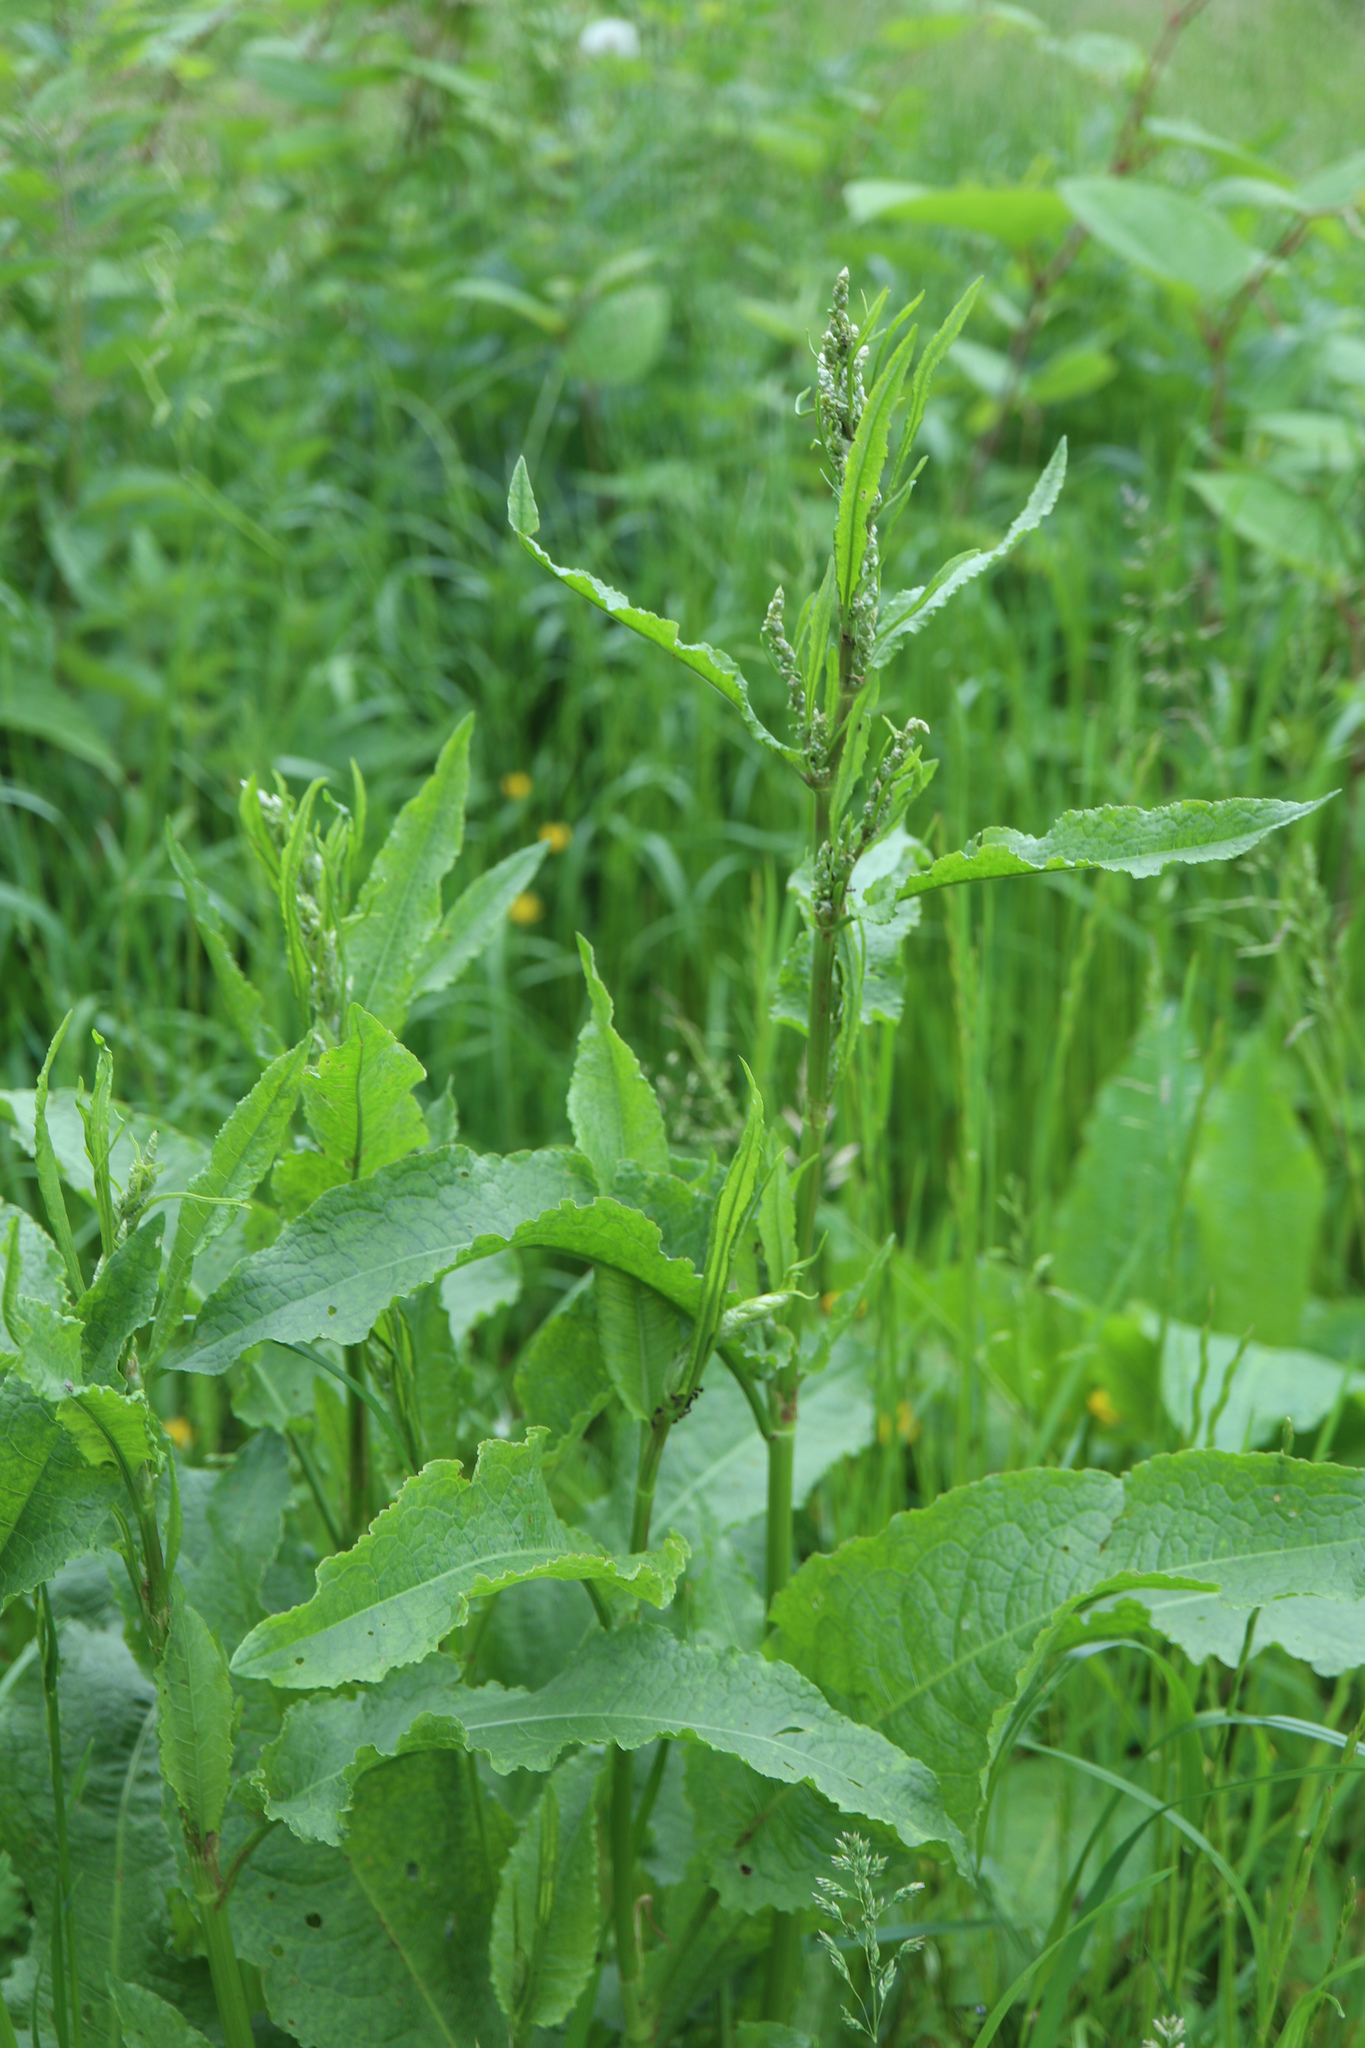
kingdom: Plantae
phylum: Tracheophyta
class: Magnoliopsida
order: Caryophyllales
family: Polygonaceae
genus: Rumex
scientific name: Rumex obtusifolius
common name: Bitter dock
